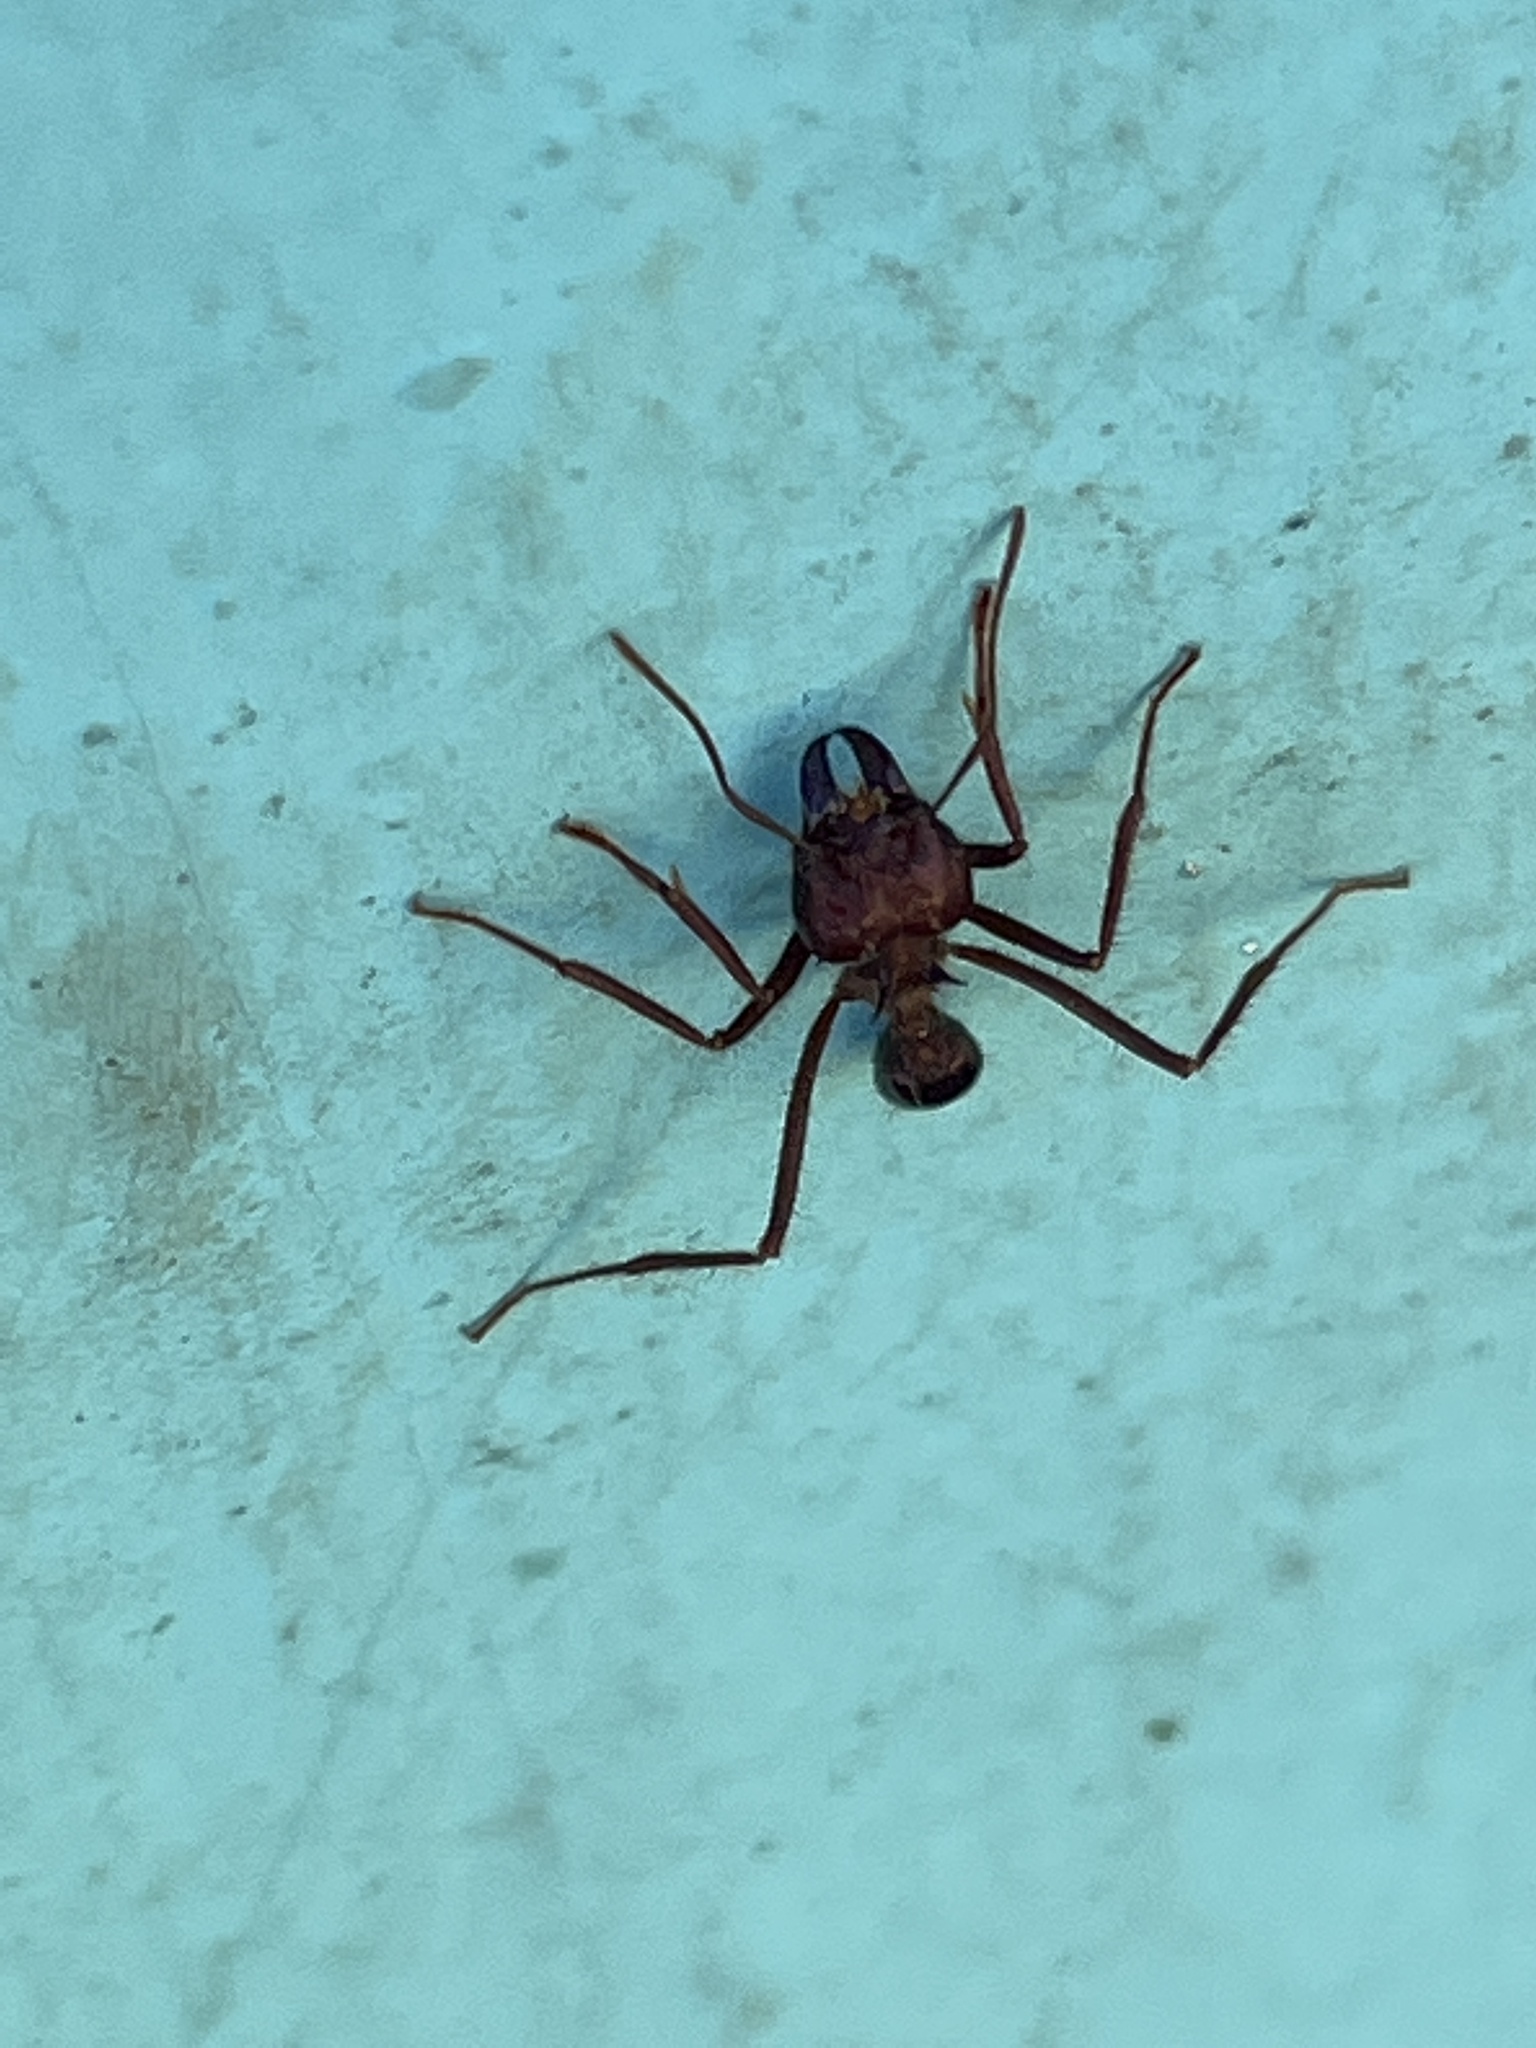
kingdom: Animalia
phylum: Arthropoda
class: Insecta
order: Hymenoptera
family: Formicidae
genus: Atta
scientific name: Atta mexicana
